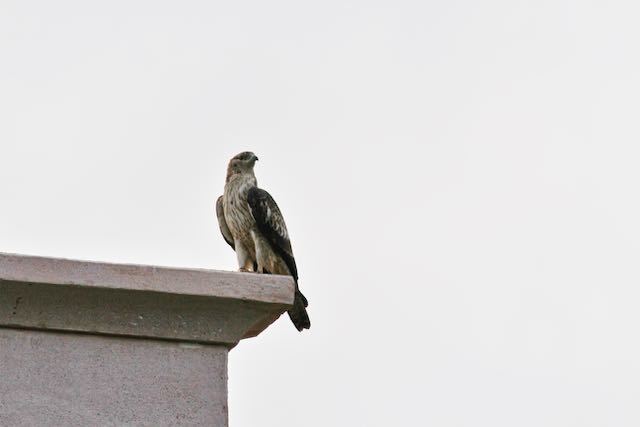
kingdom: Animalia
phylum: Chordata
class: Aves
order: Accipitriformes
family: Accipitridae
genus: Pernis
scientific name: Pernis ptilorhynchus
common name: Crested honey buzzard
